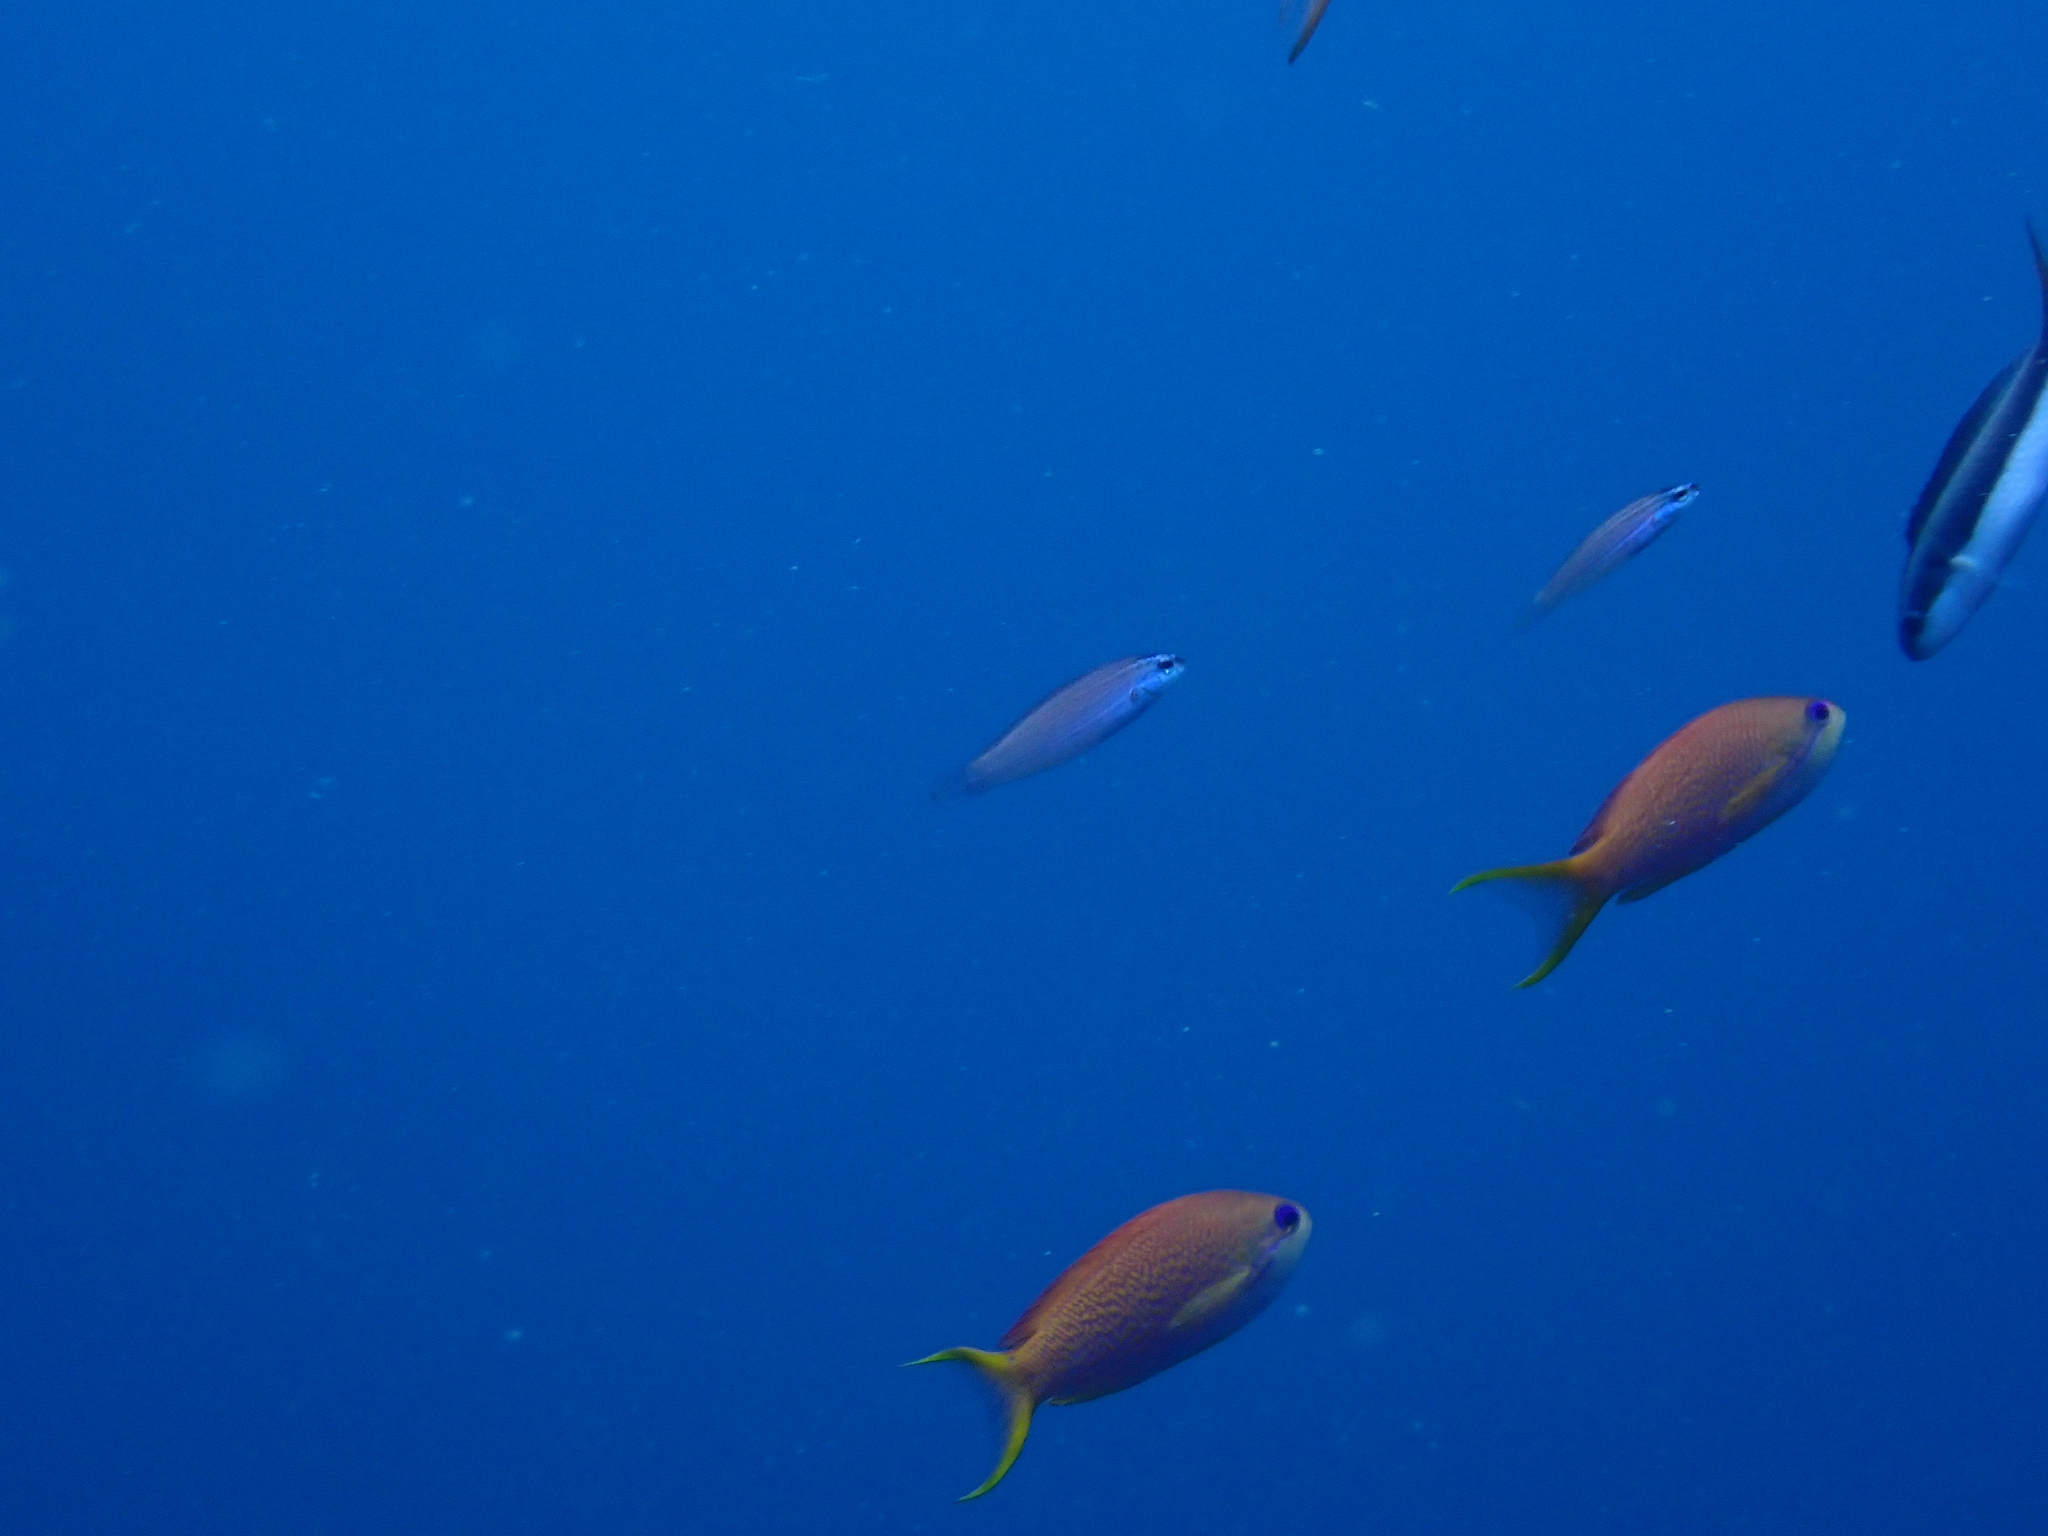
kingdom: Animalia
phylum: Chordata
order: Perciformes
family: Labridae
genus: Pseudocoris
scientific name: Pseudocoris yamashiroi
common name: Redspot wrasse
